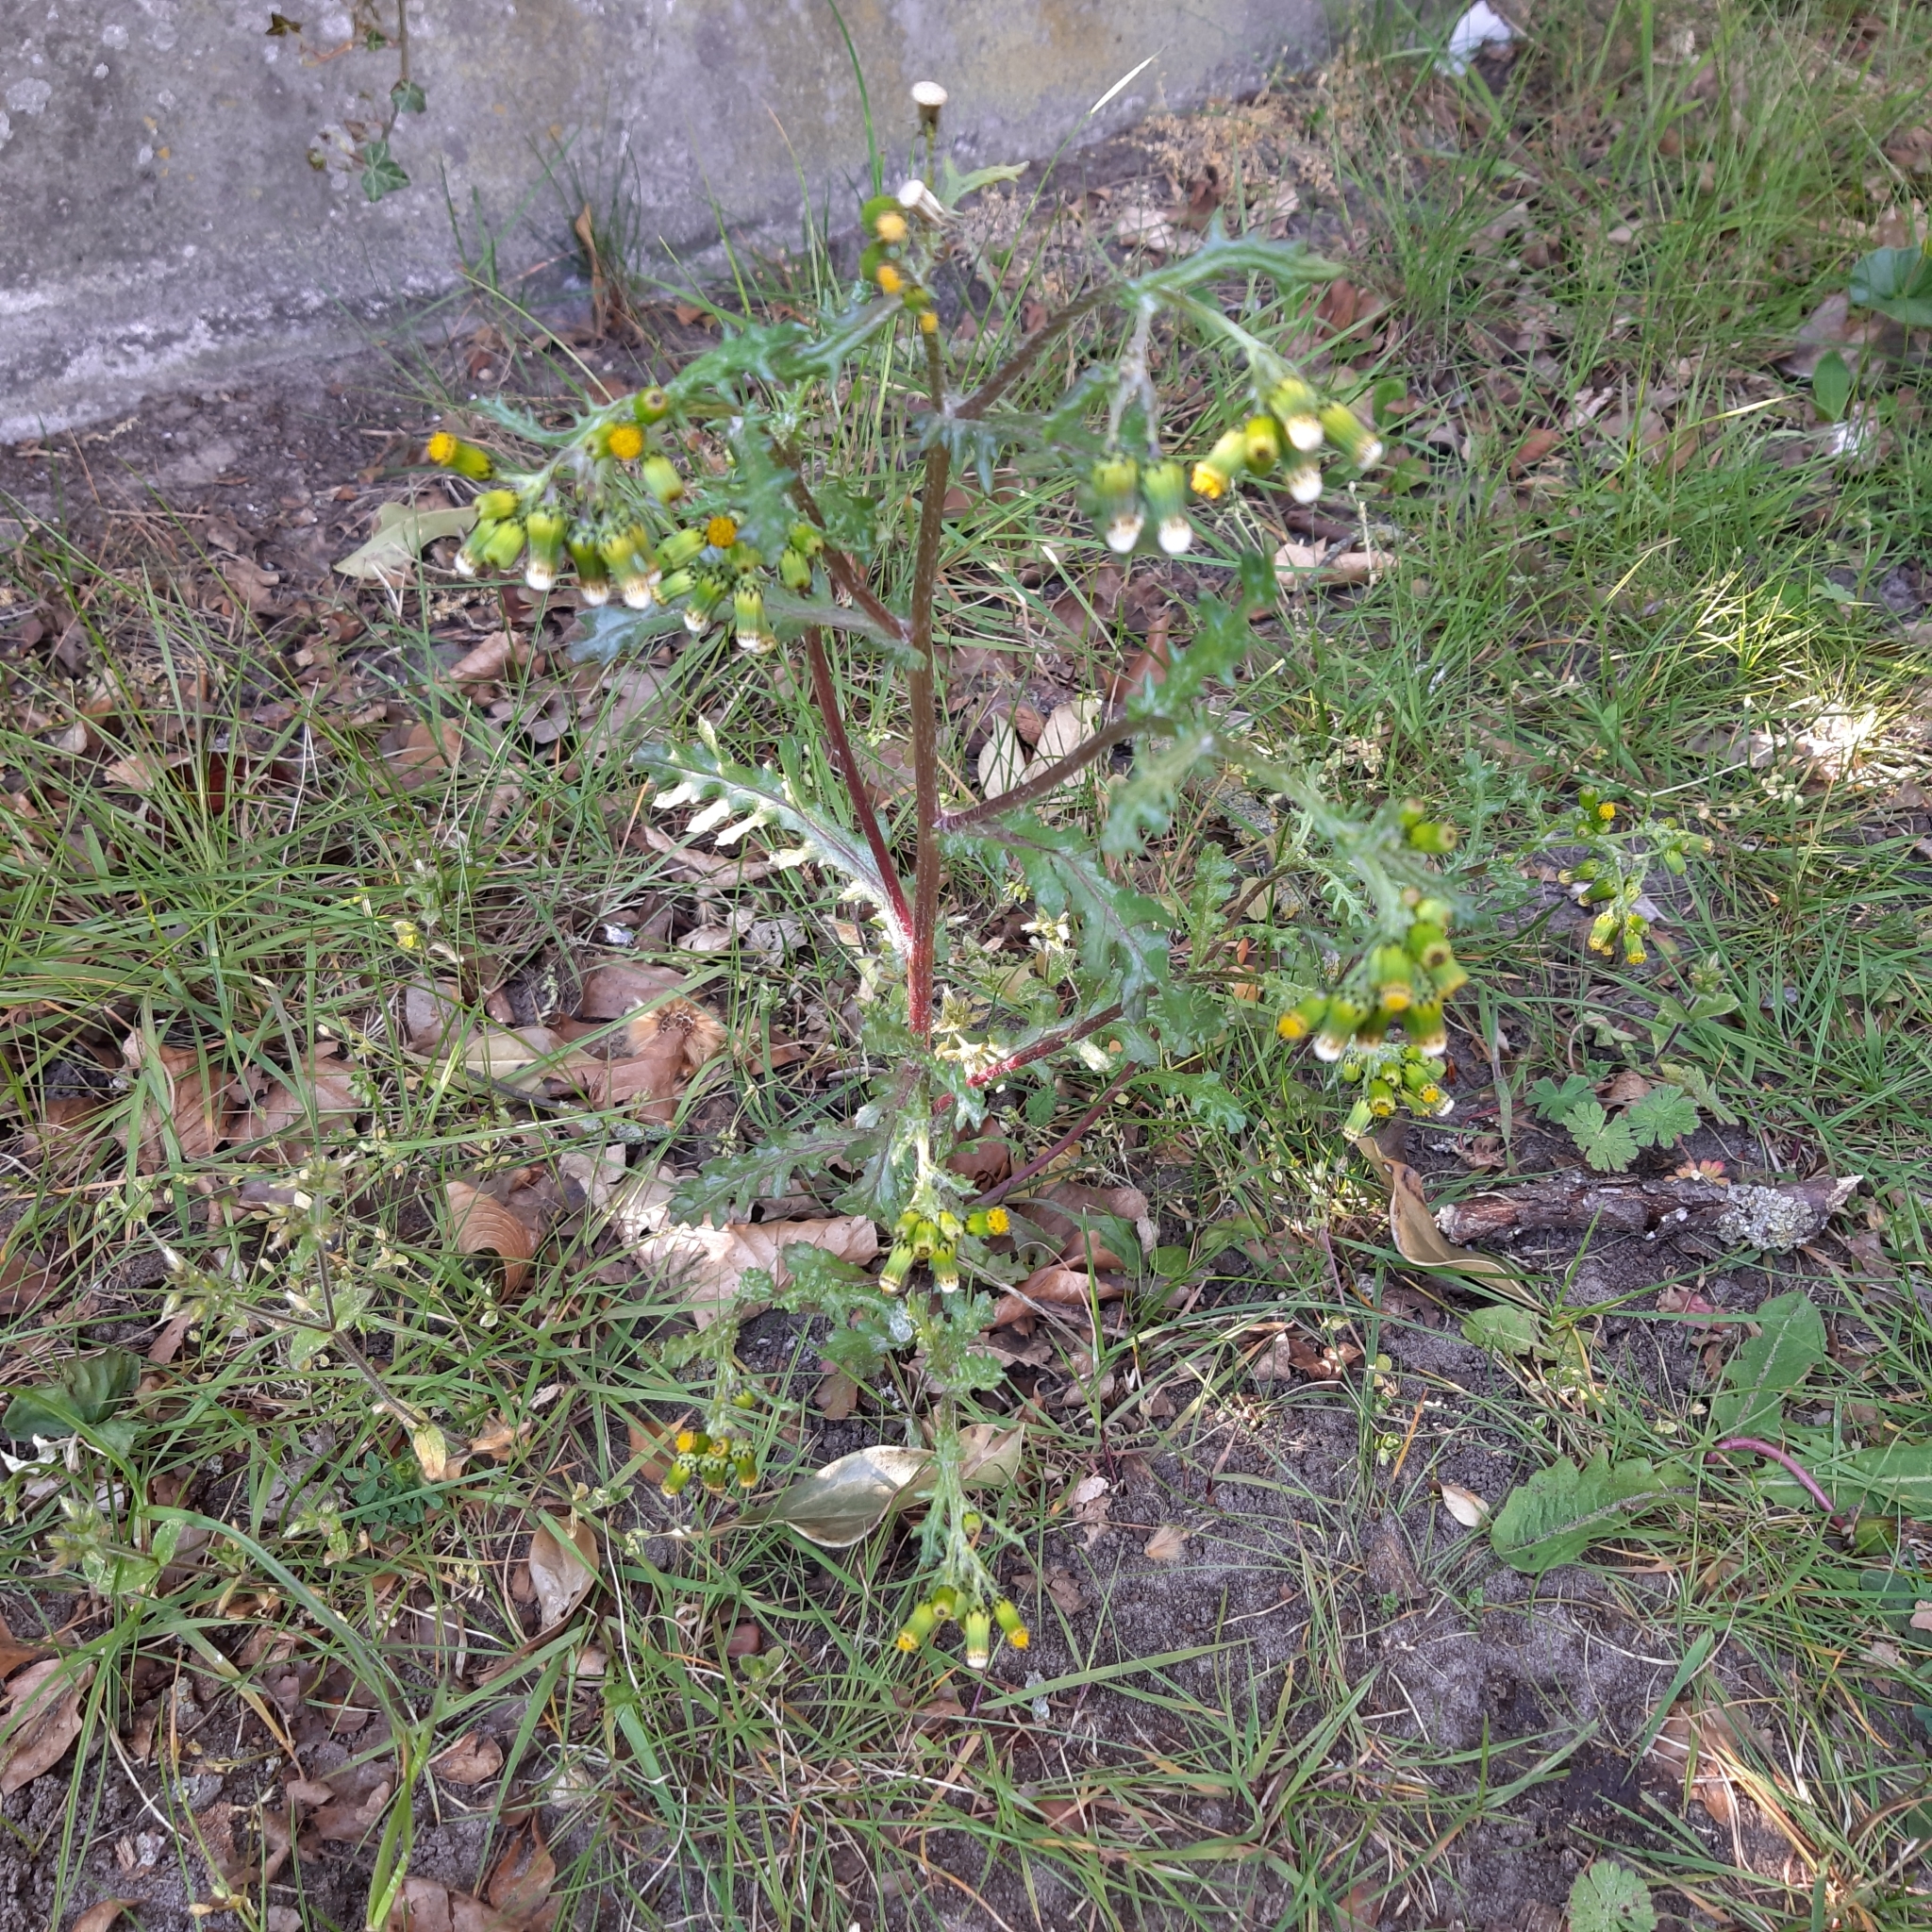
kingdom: Plantae
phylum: Tracheophyta
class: Magnoliopsida
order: Asterales
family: Asteraceae
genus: Senecio
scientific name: Senecio vulgaris
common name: Old-man-in-the-spring
